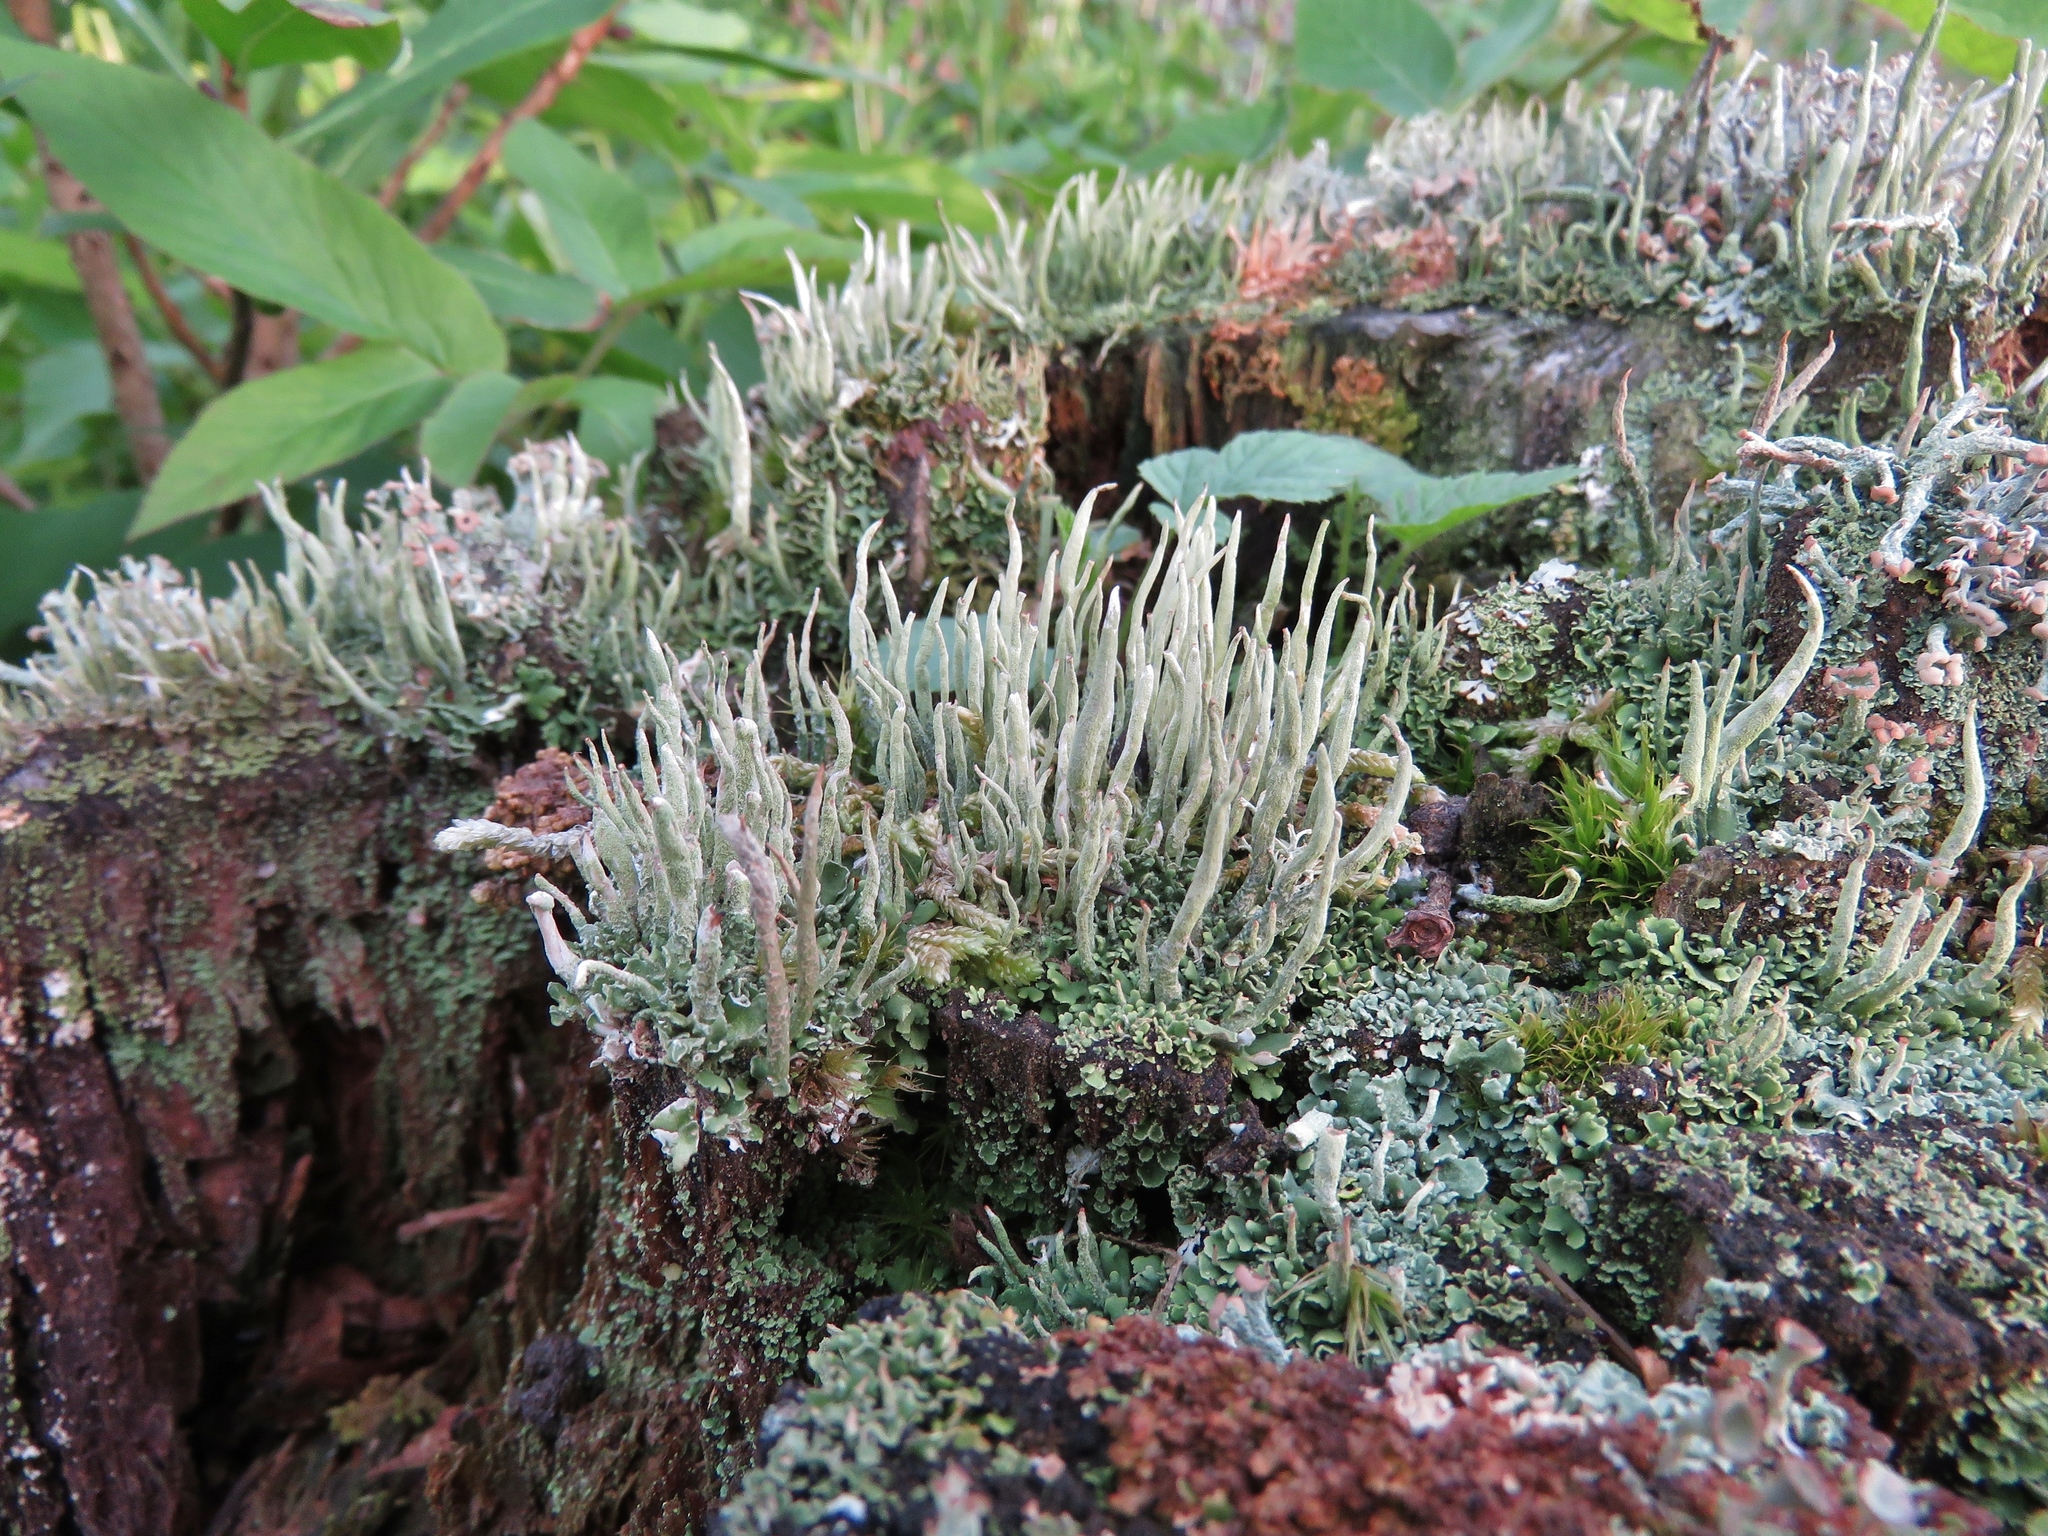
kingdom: Fungi
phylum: Ascomycota
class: Lecanoromycetes
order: Lecanorales
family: Cladoniaceae
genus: Cladonia
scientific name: Cladonia ochrochlora
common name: Smooth-footed powderhorn
